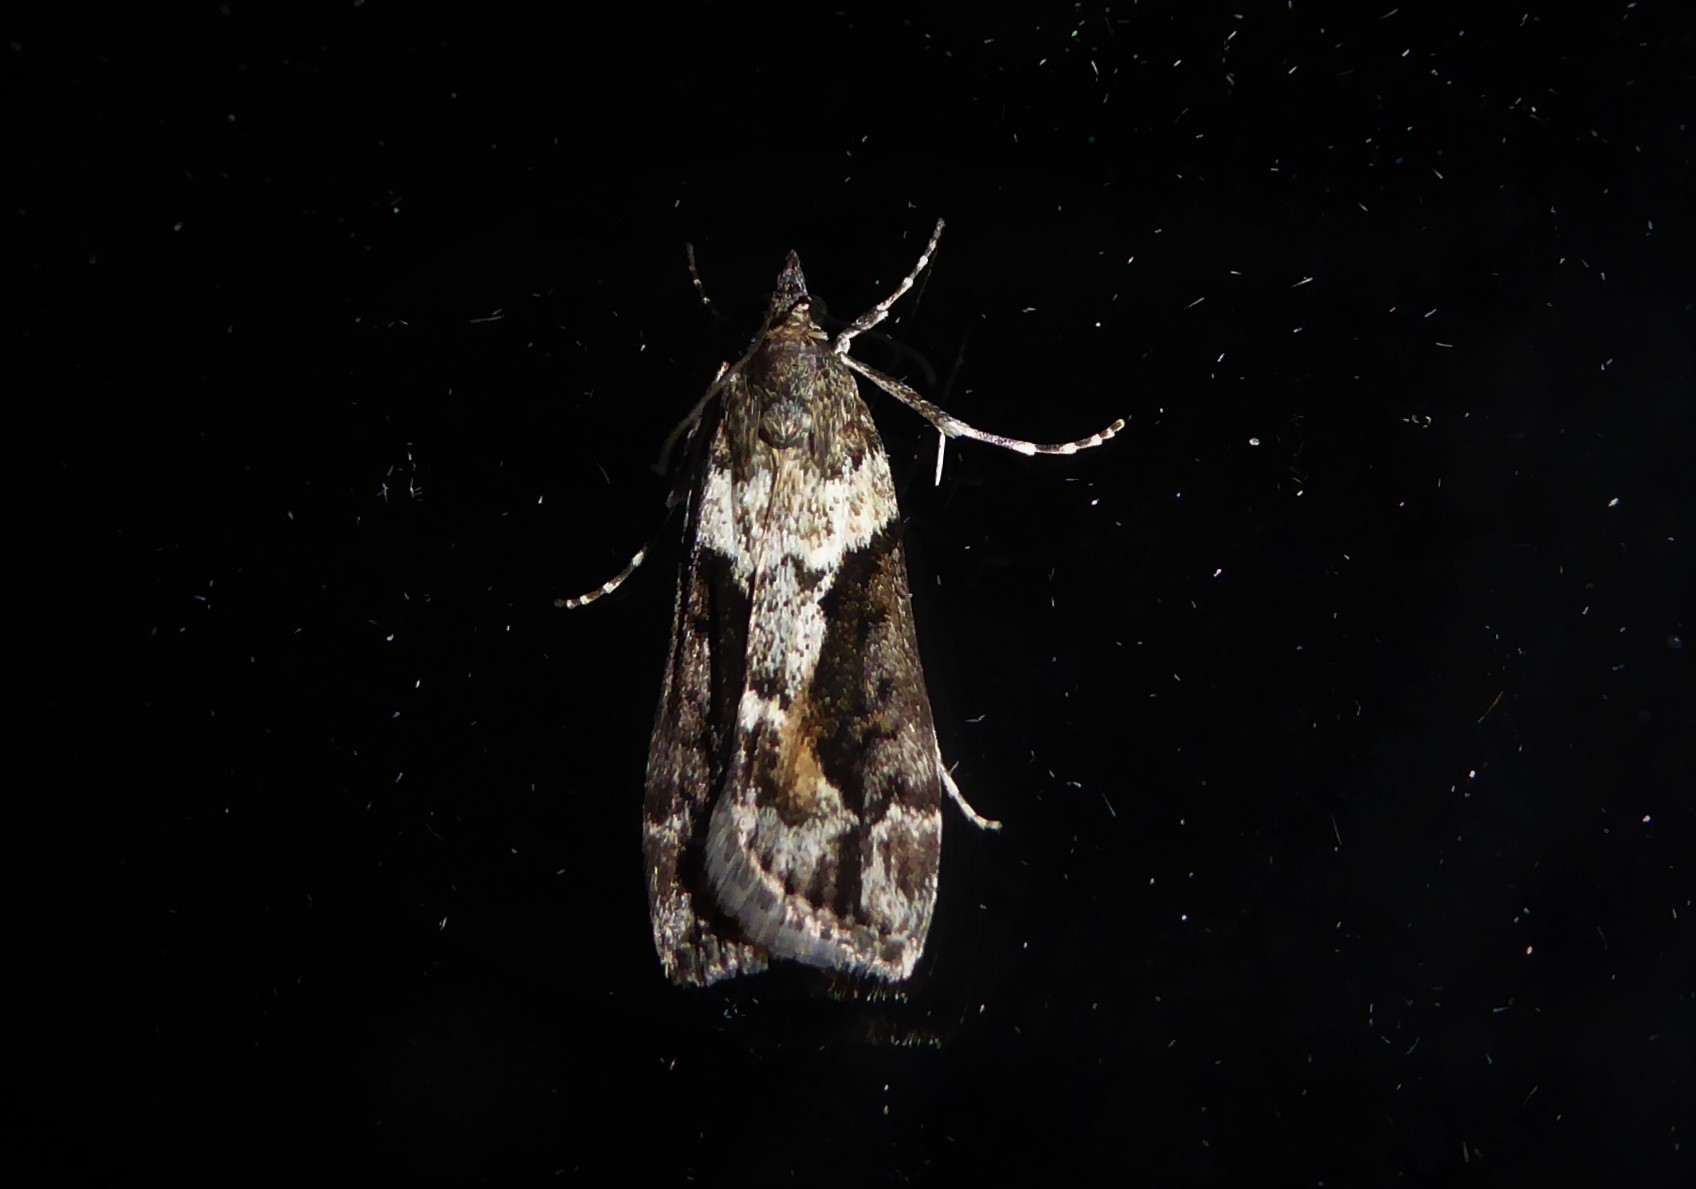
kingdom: Animalia
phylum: Arthropoda
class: Insecta
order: Lepidoptera
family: Crambidae
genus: Eudonia
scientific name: Eudonia submarginalis
